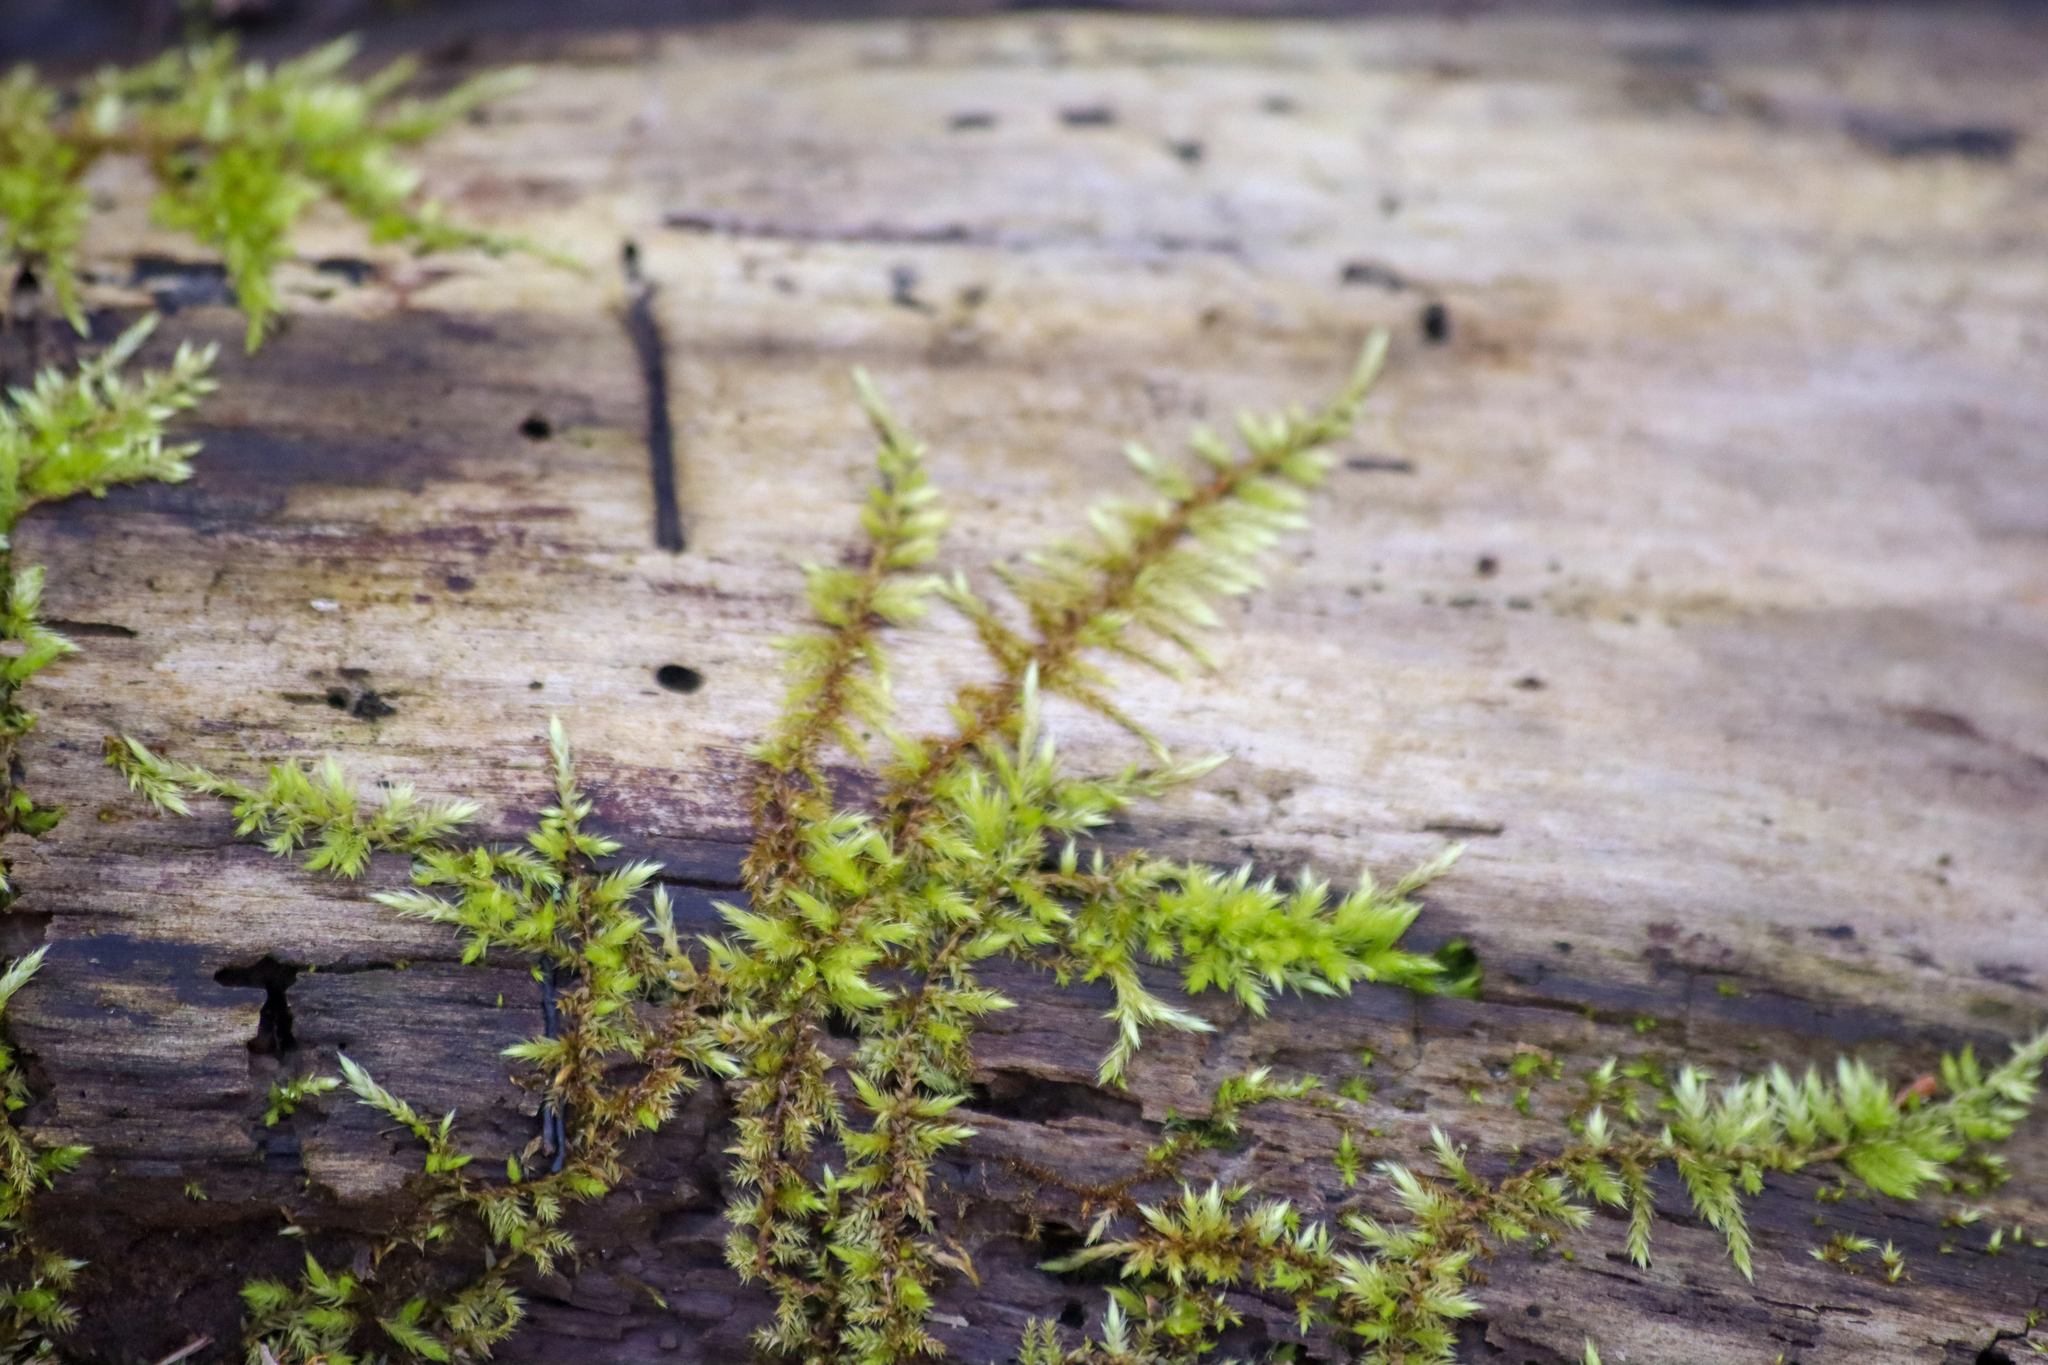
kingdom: Plantae
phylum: Bryophyta
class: Bryopsida
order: Hypnales
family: Callicladiaceae
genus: Callicladium
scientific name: Callicladium haldanianum
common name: Beautiful branch moss
